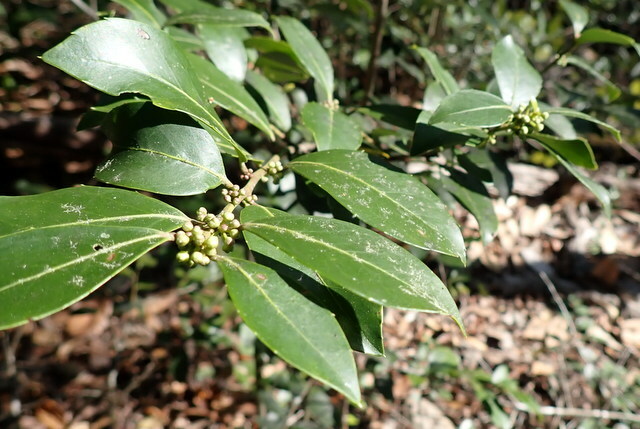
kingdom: Plantae
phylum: Tracheophyta
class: Magnoliopsida
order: Aquifoliales
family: Aquifoliaceae
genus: Ilex
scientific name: Ilex coriacea
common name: Sweet gallberry
